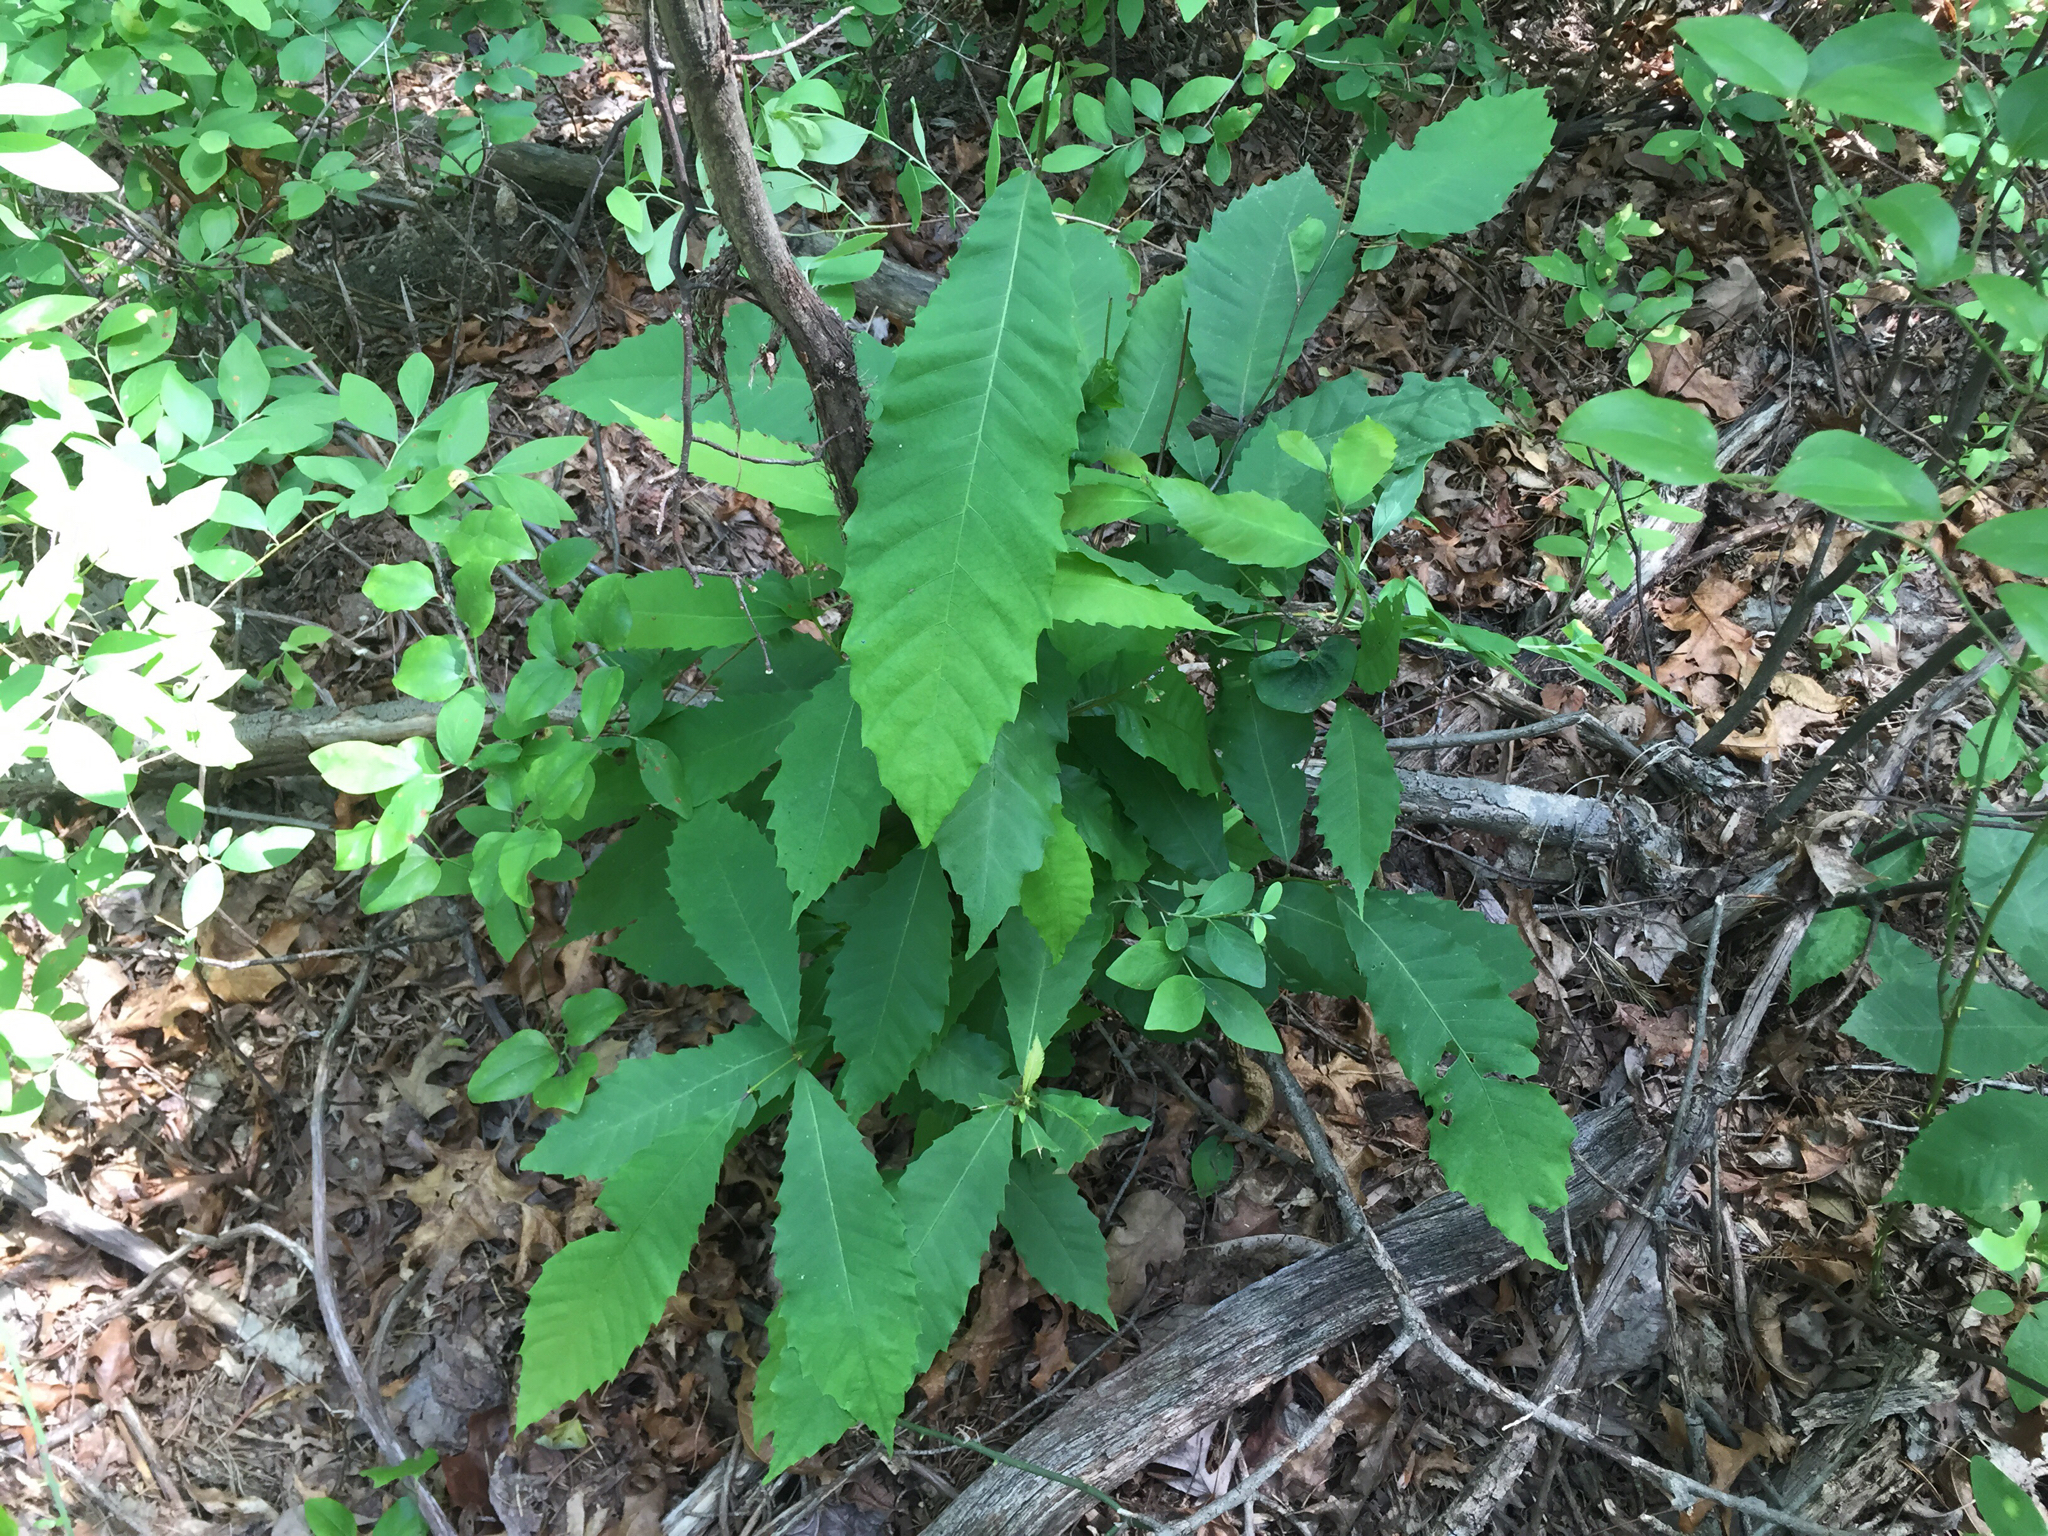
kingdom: Plantae
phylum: Tracheophyta
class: Magnoliopsida
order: Fagales
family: Fagaceae
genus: Castanea
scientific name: Castanea dentata
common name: American chestnut
